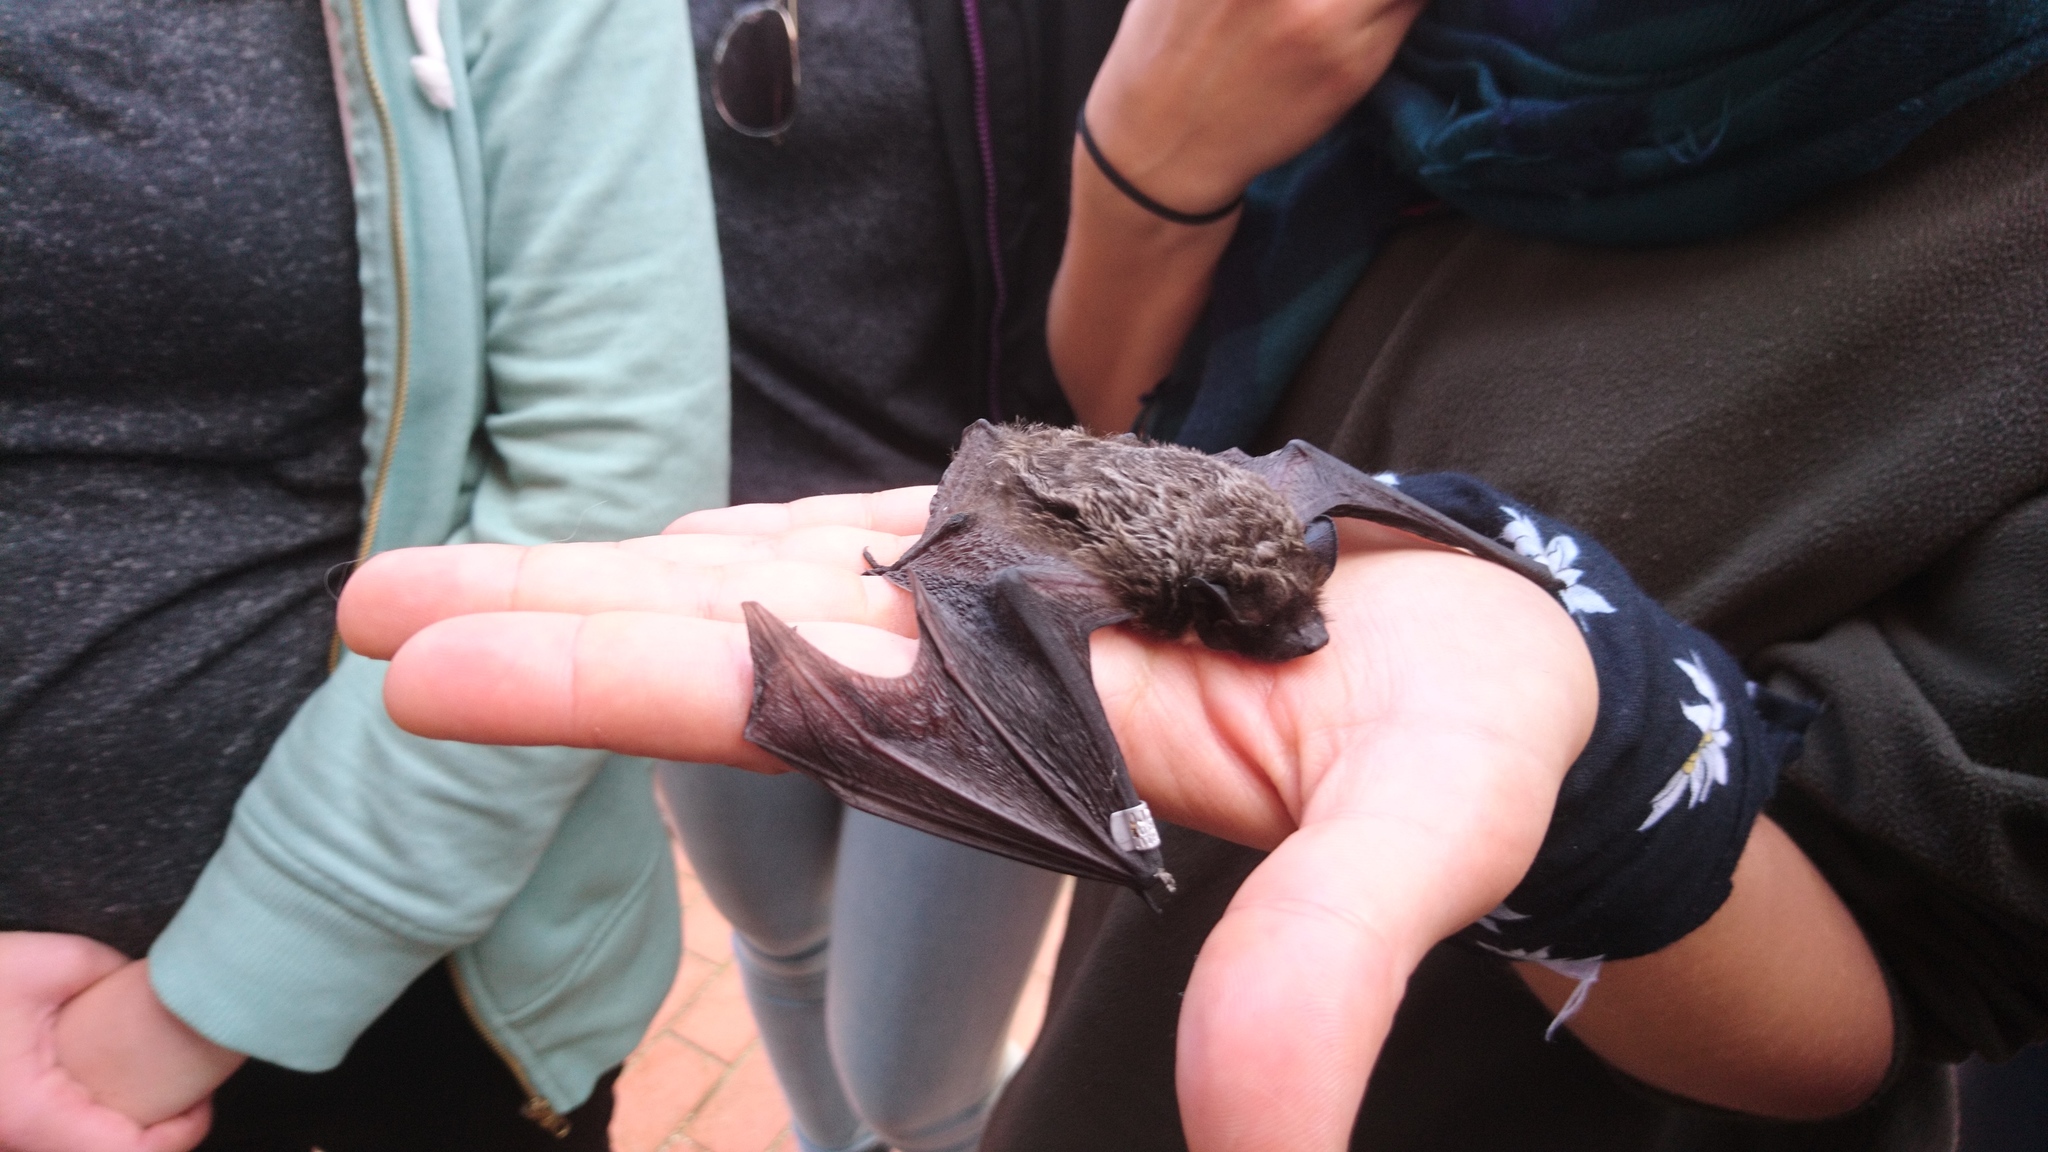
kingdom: Animalia
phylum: Chordata
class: Mammalia
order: Chiroptera
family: Vespertilionidae
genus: Vespertilio
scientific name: Vespertilio murinus
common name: Particolored bat
